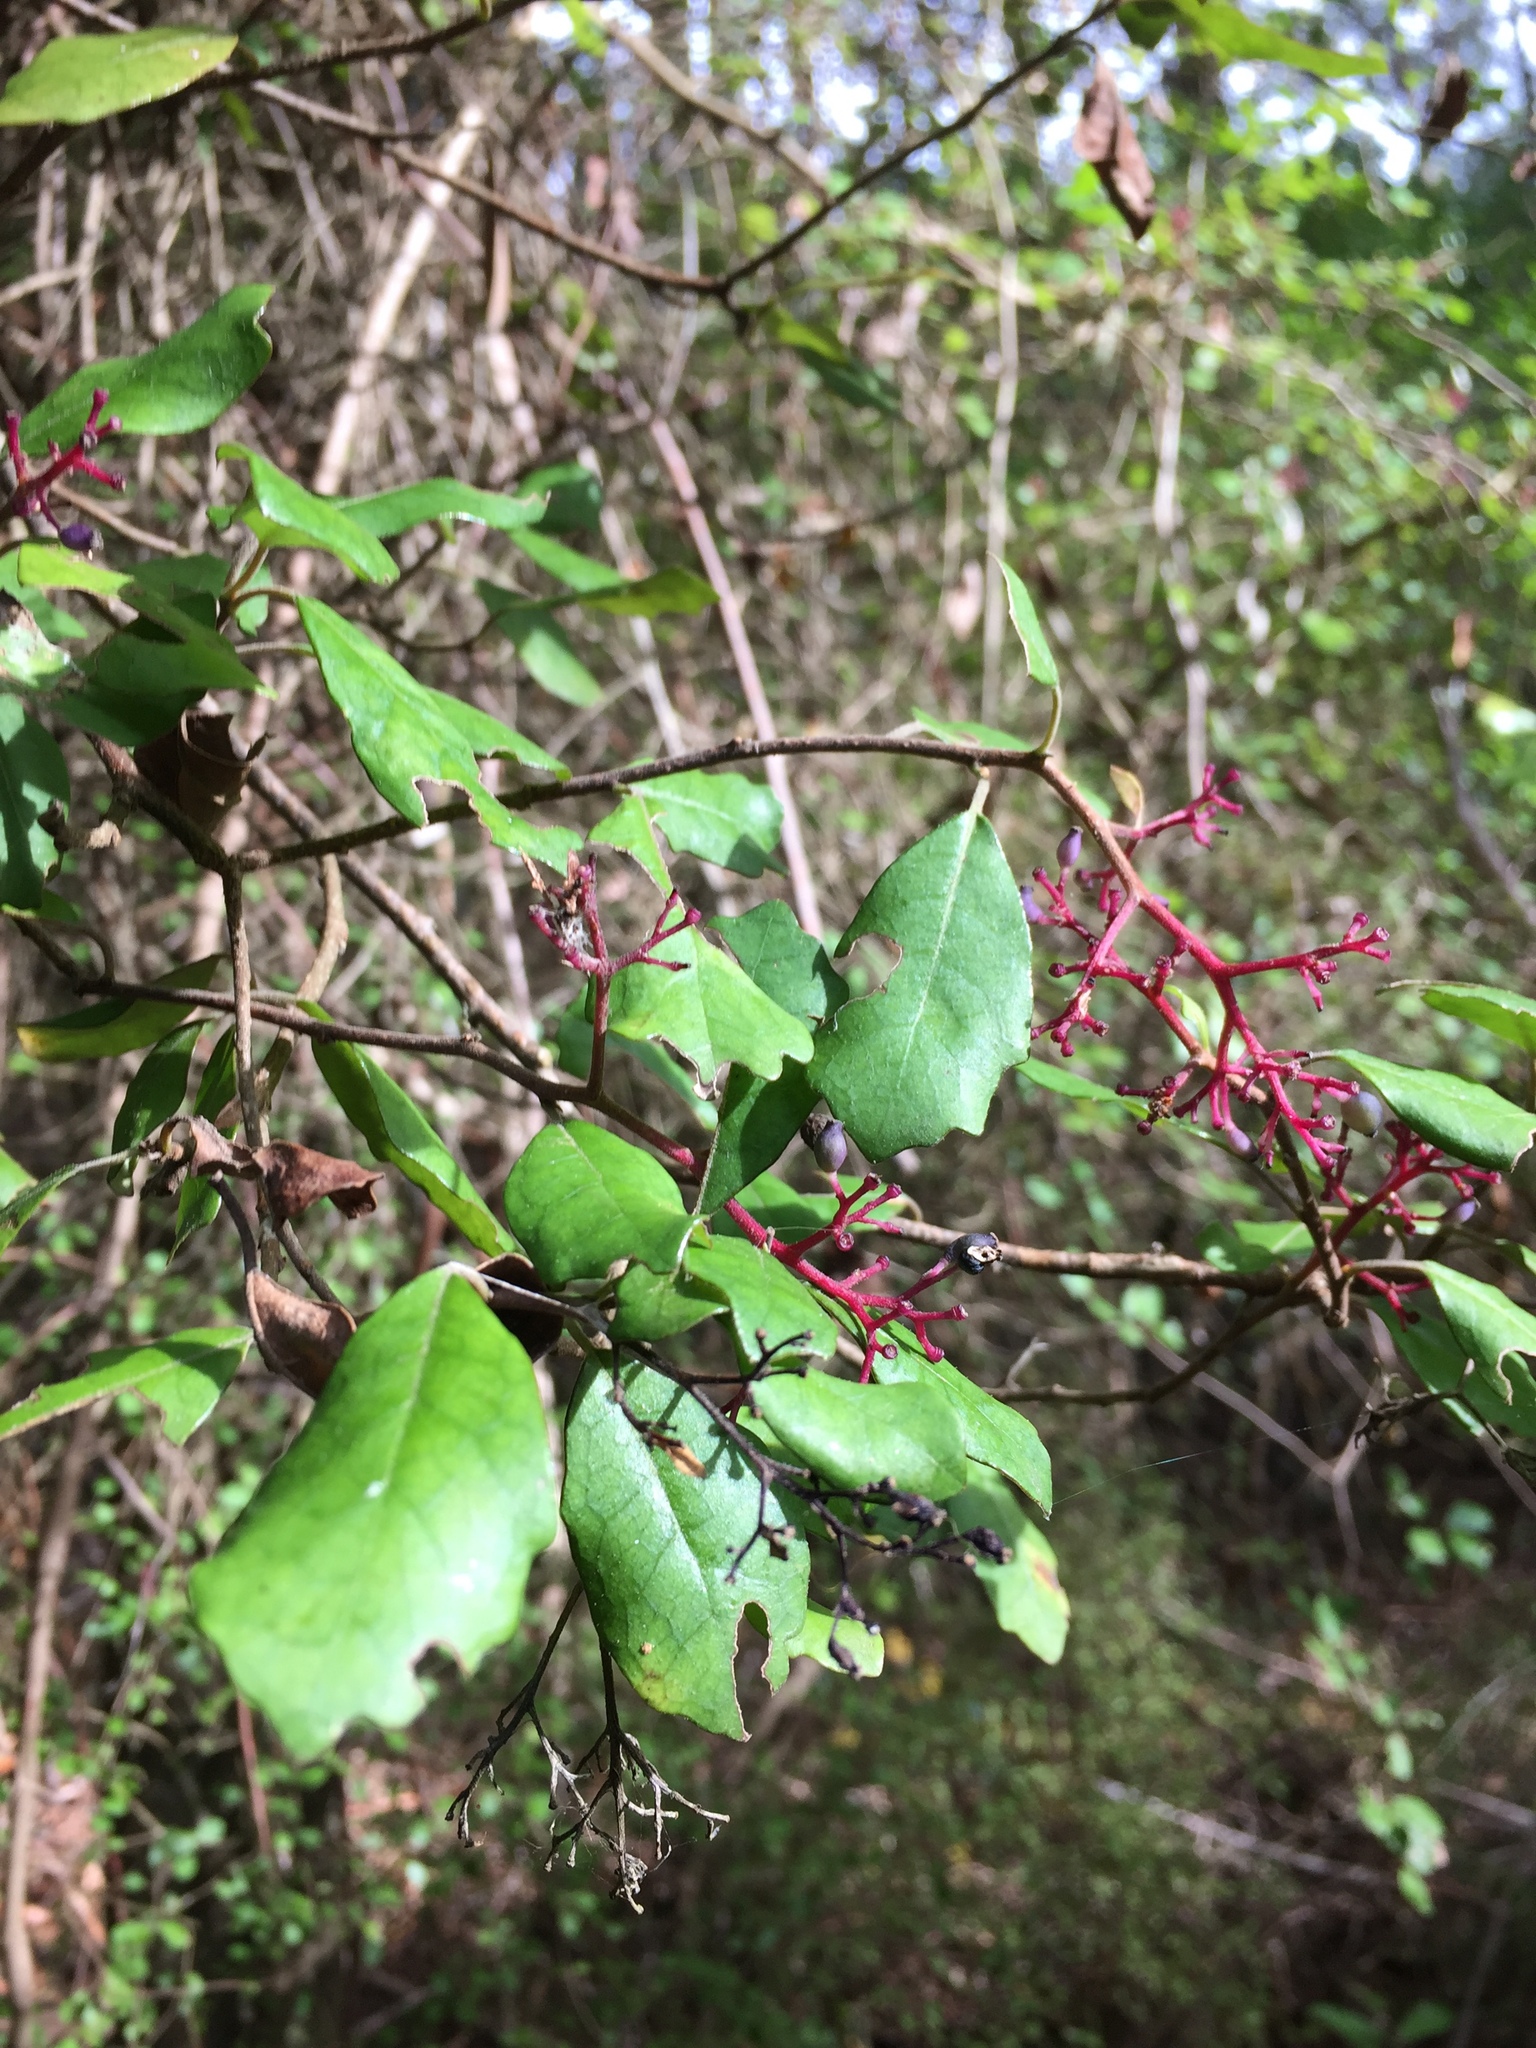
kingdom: Plantae
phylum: Tracheophyta
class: Magnoliopsida
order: Apiales
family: Pennantiaceae
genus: Pennantia
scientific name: Pennantia corymbosa
